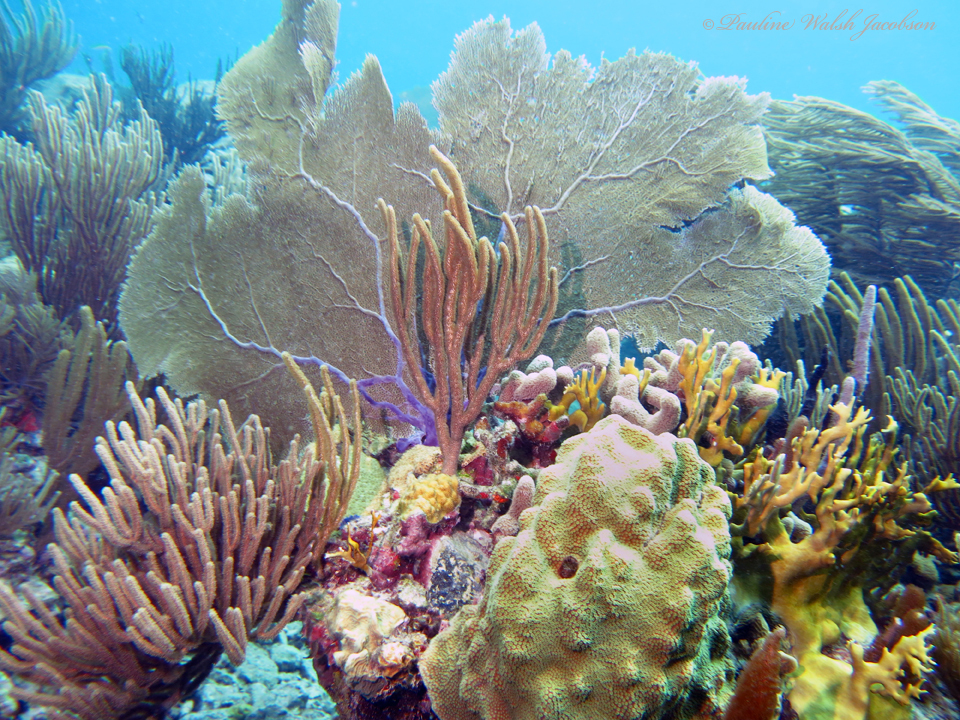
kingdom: Animalia
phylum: Cnidaria
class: Anthozoa
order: Malacalcyonacea
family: Gorgoniidae
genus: Gorgonia
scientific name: Gorgonia ventalina
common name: Common sea fan
